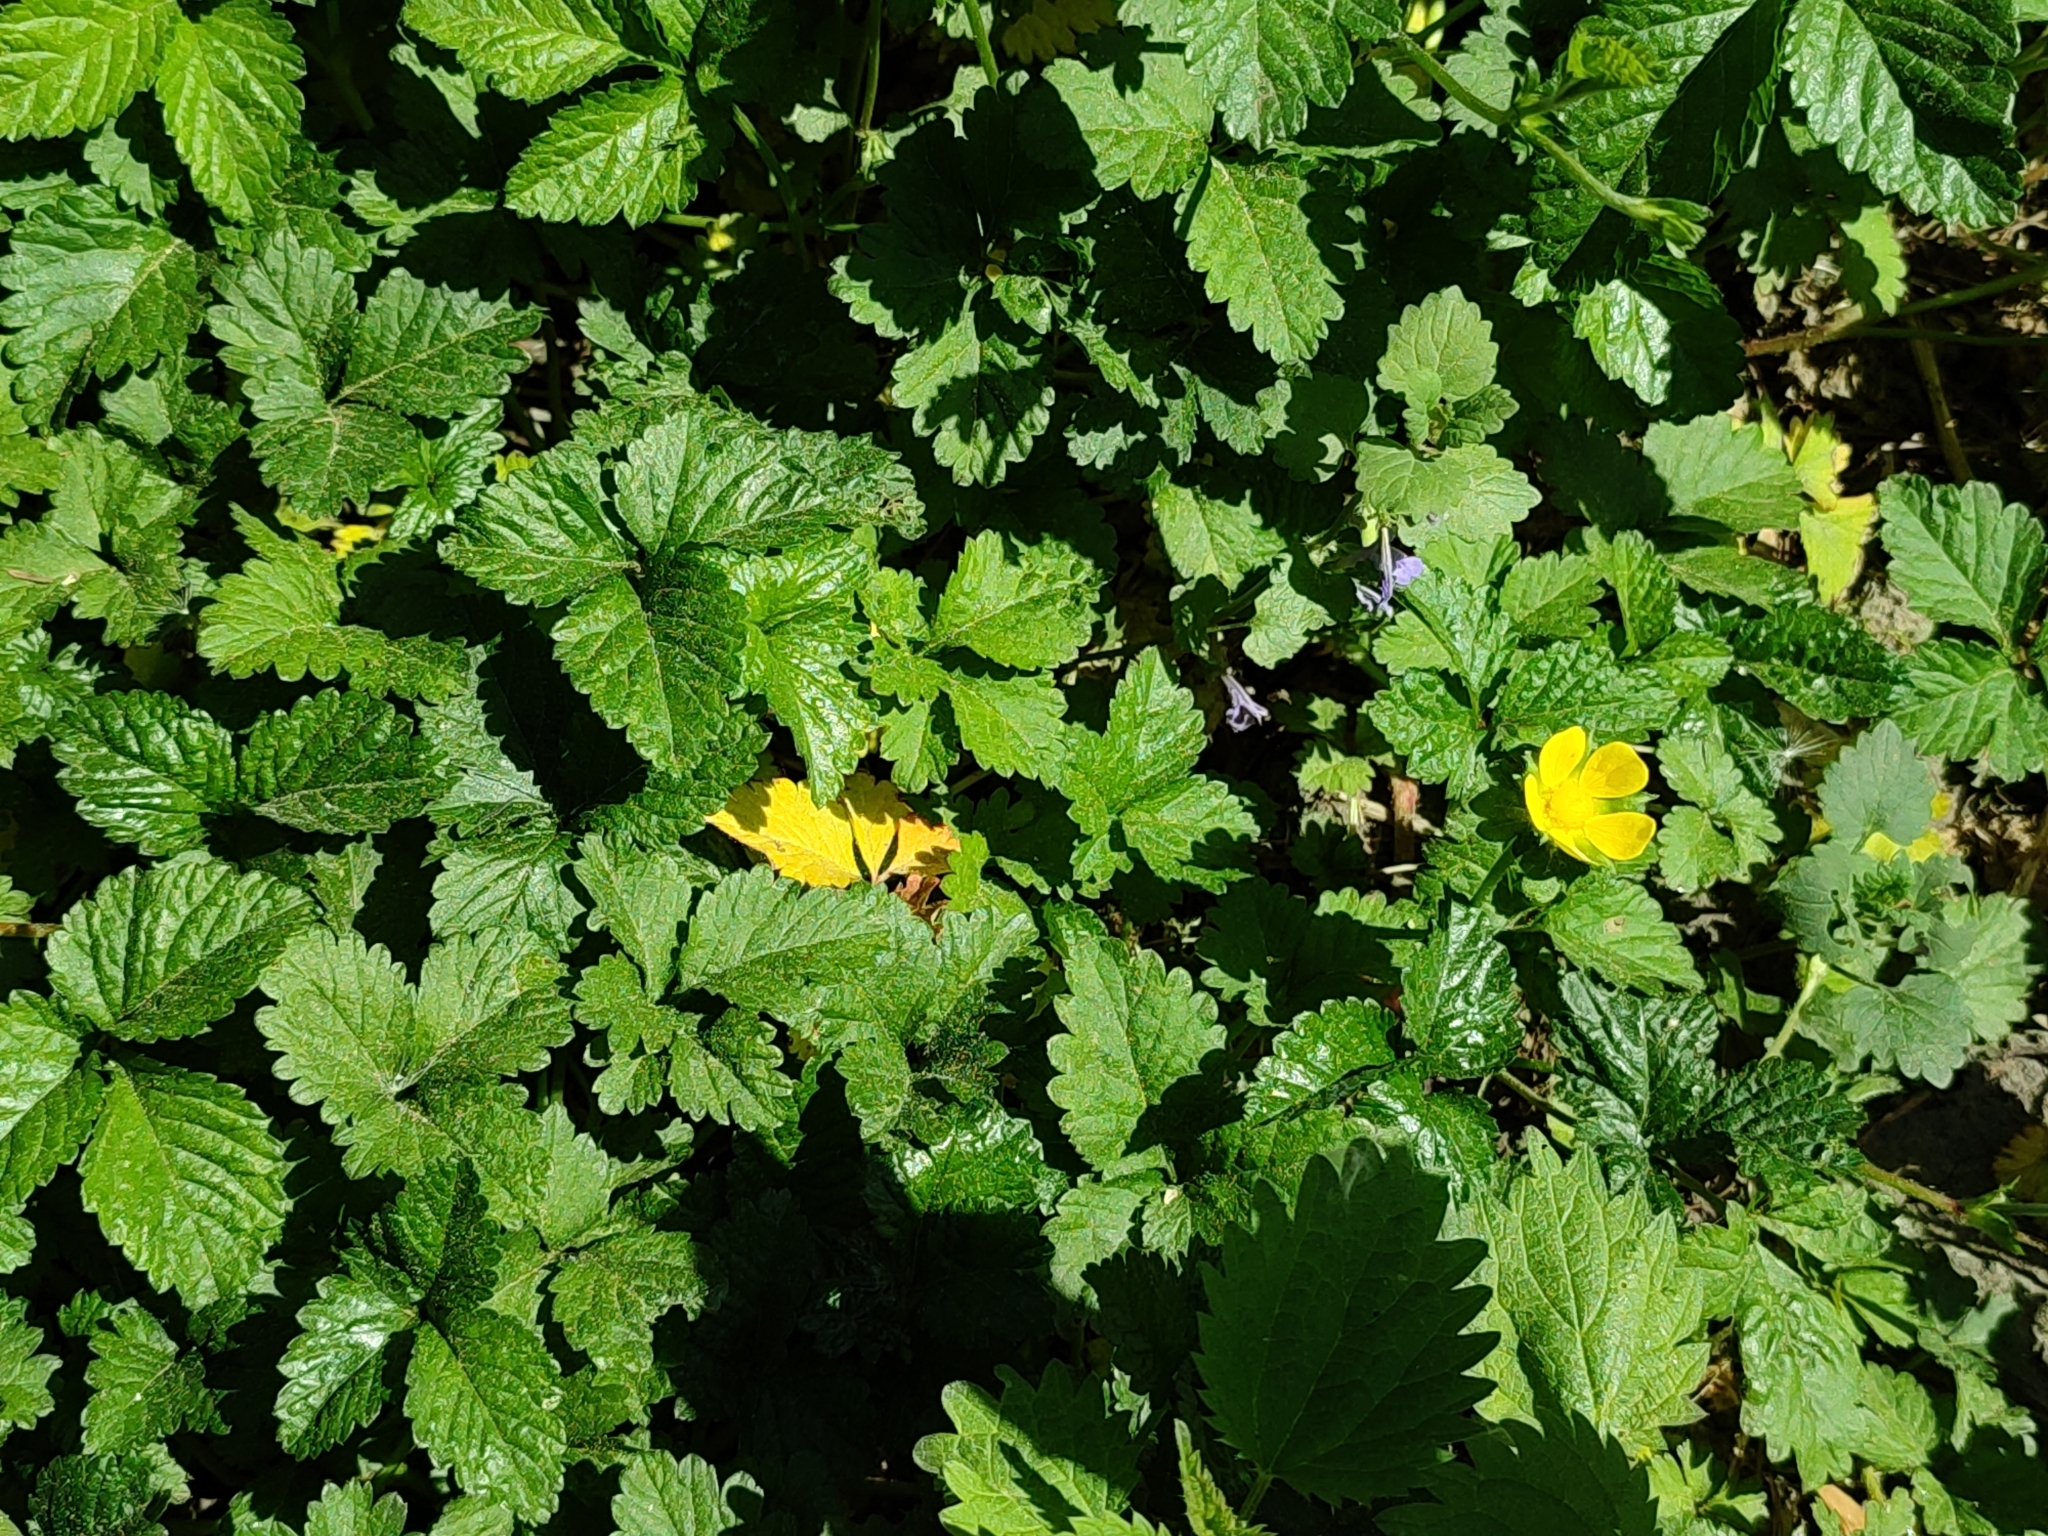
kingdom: Plantae
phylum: Tracheophyta
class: Magnoliopsida
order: Rosales
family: Rosaceae
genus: Potentilla
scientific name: Potentilla indica
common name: Yellow-flowered strawberry
